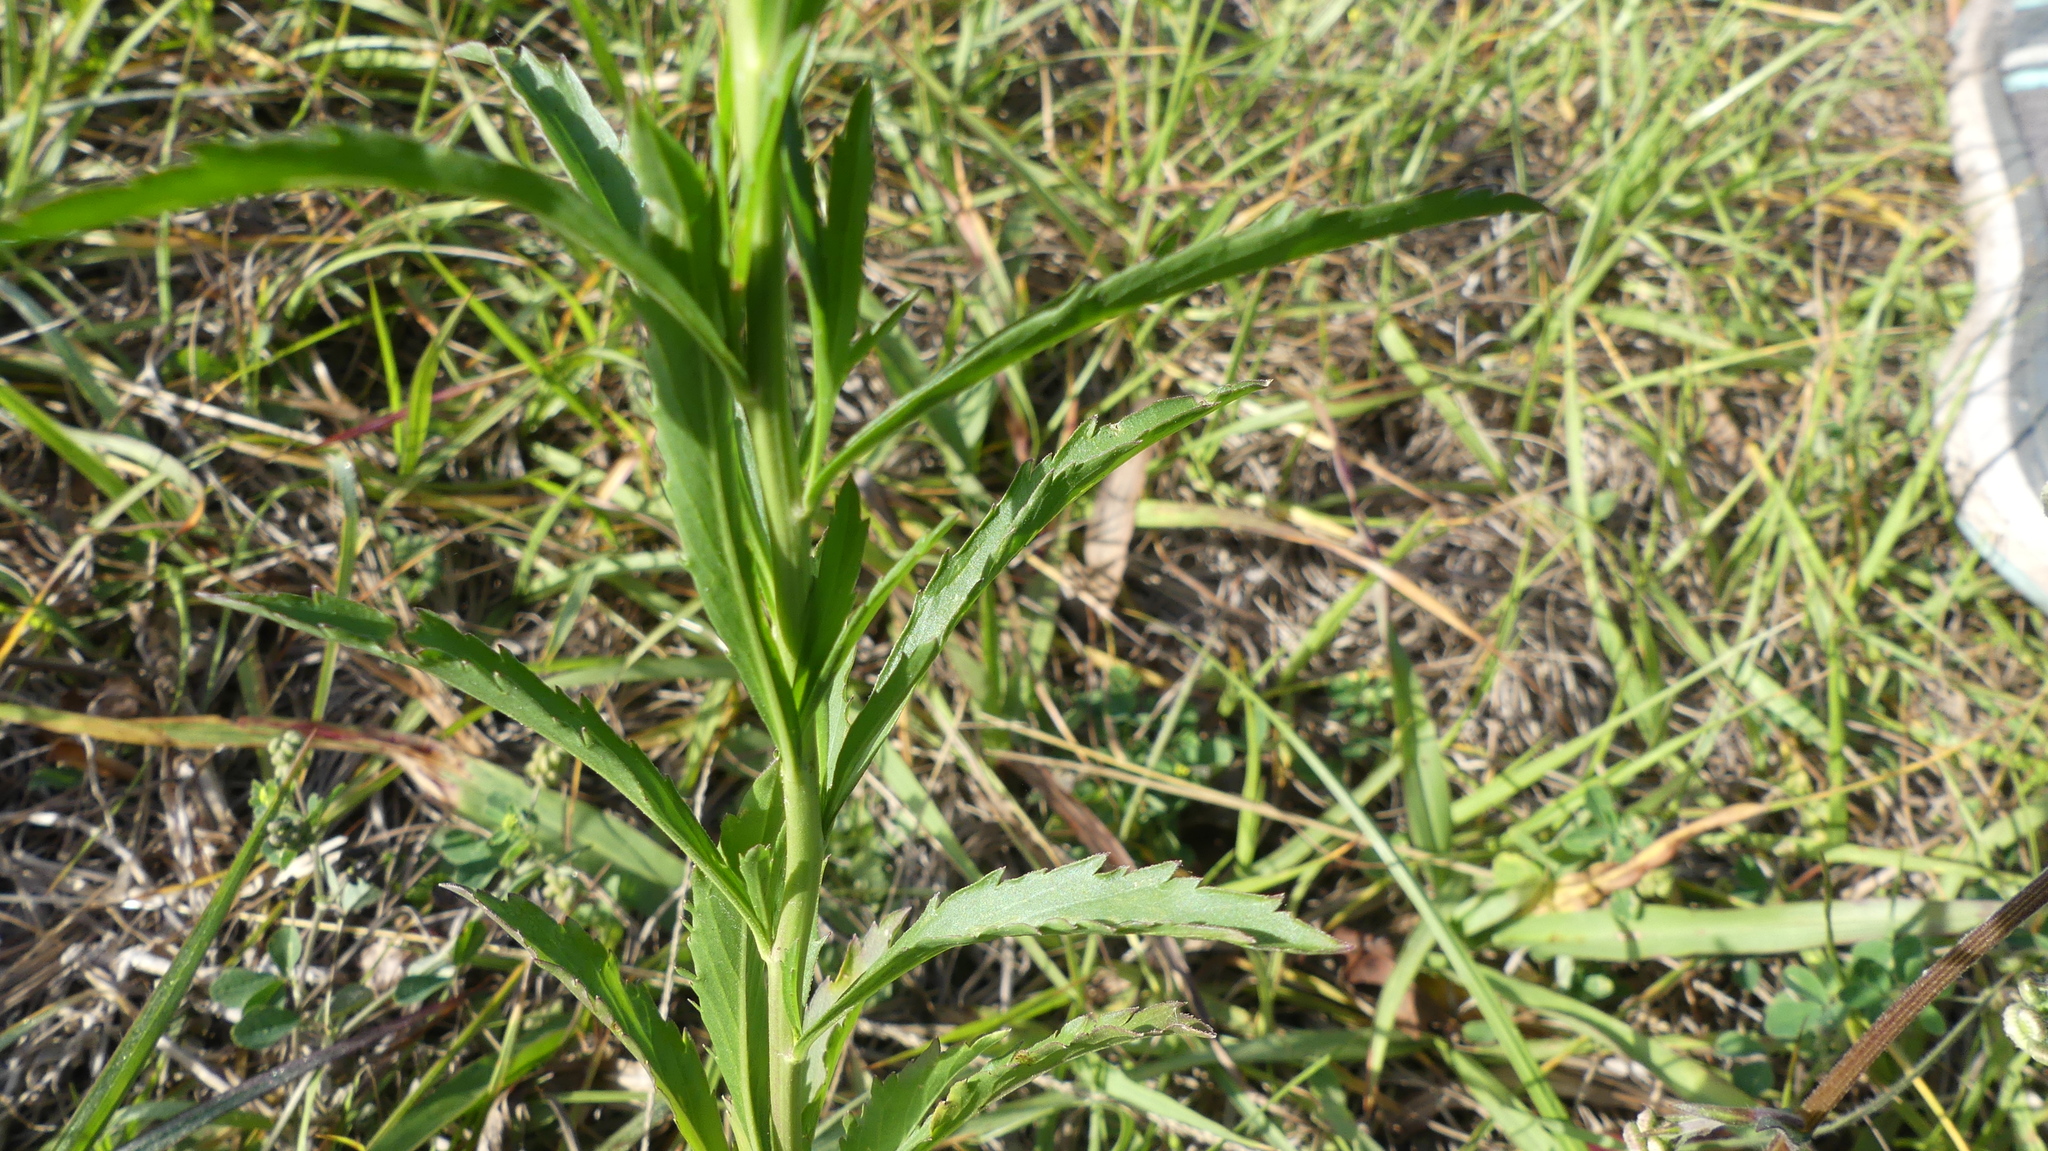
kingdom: Plantae
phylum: Tracheophyta
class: Magnoliopsida
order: Brassicales
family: Brassicaceae
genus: Lepidium
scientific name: Lepidium virginicum
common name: Least pepperwort
